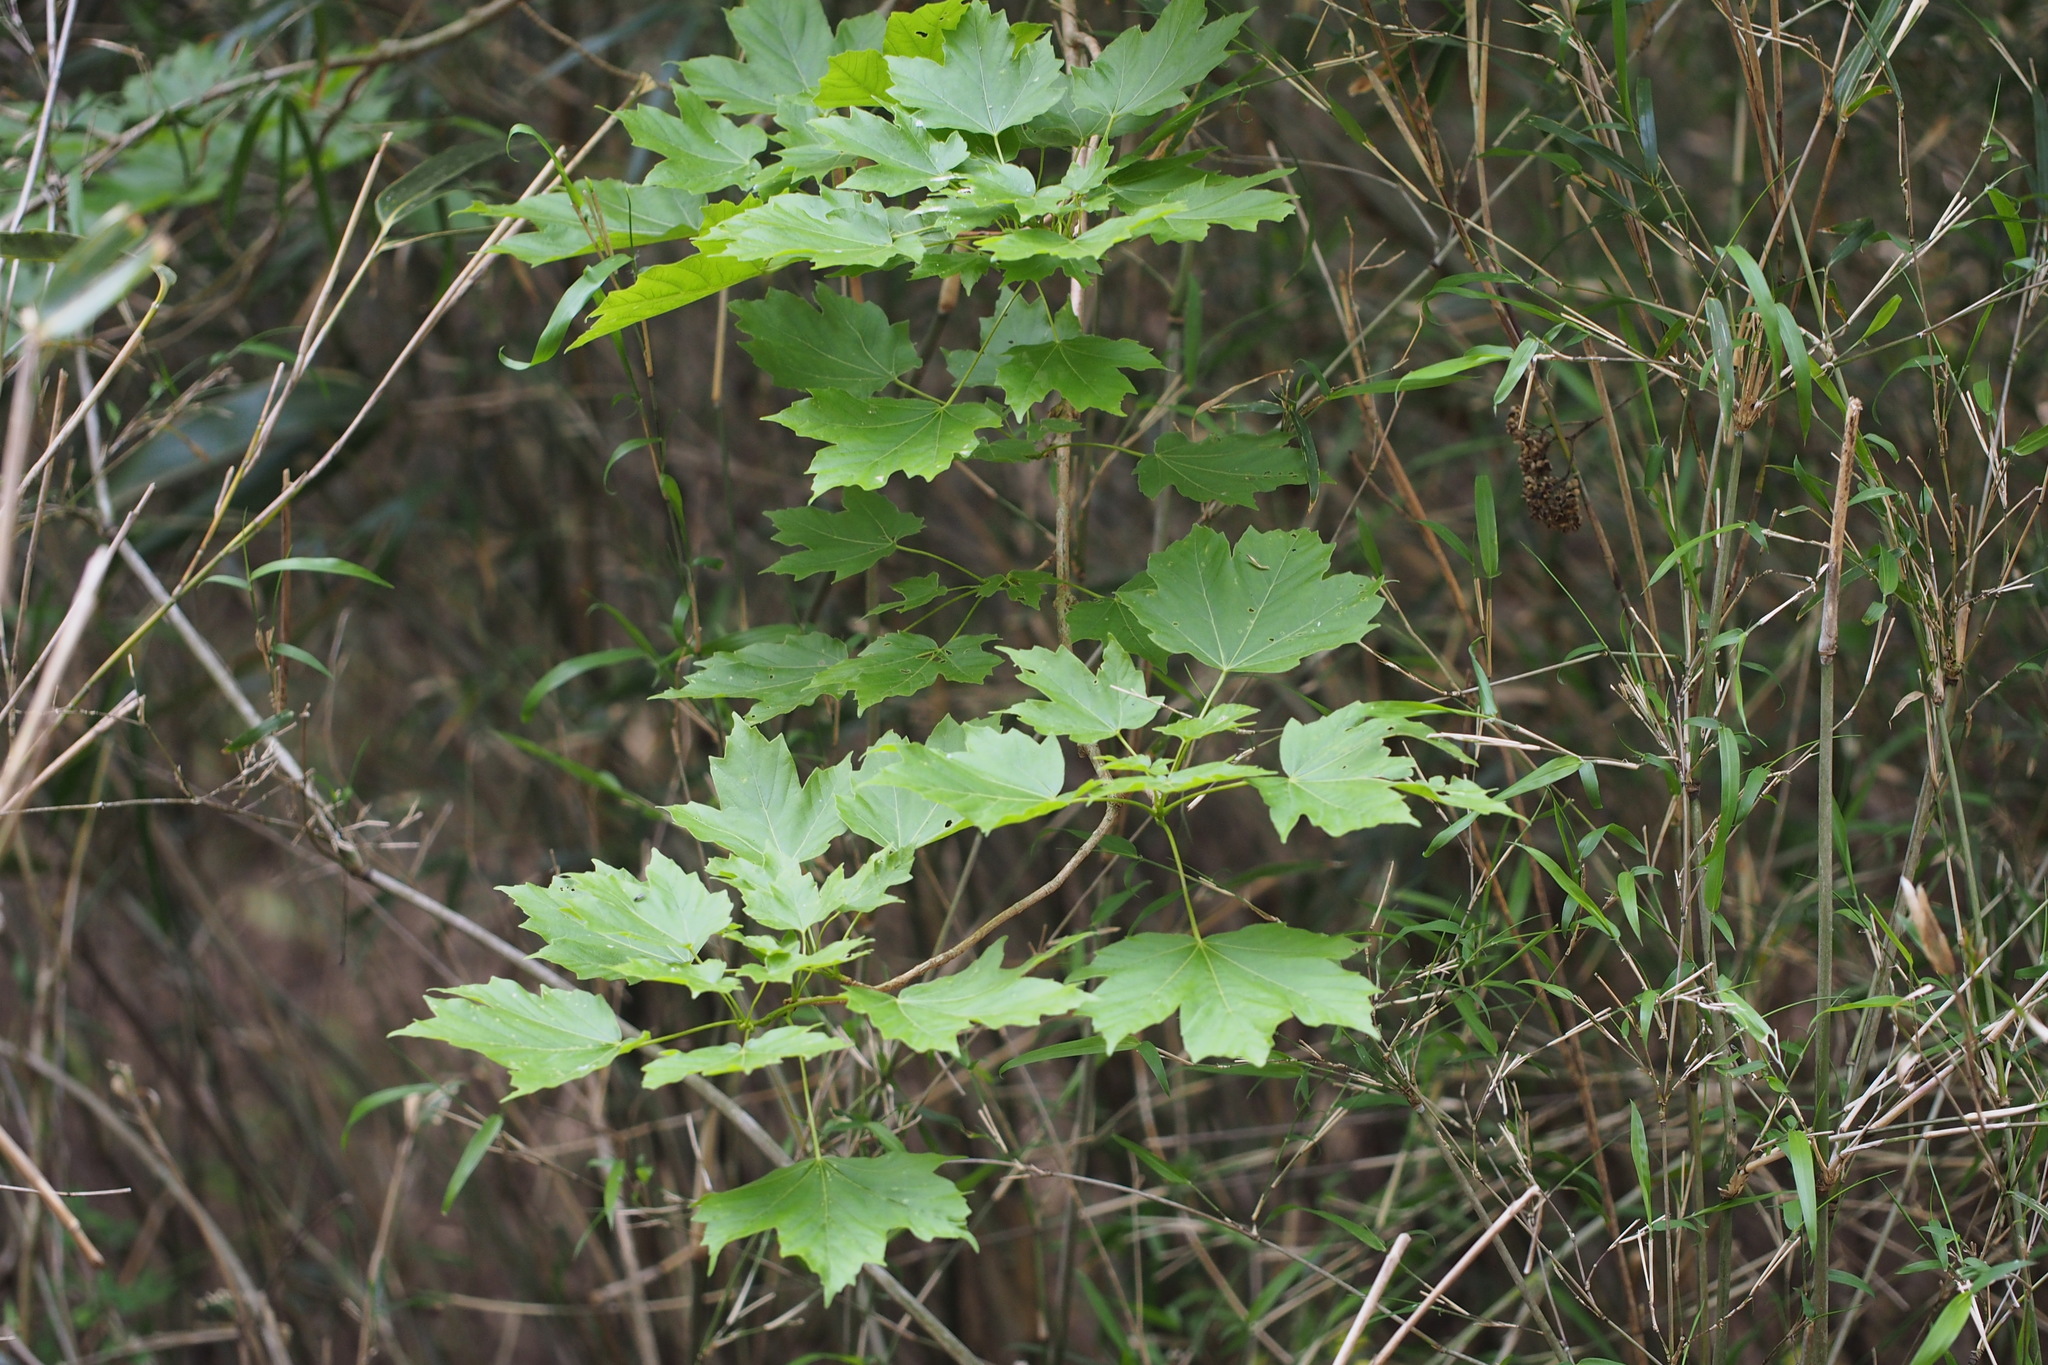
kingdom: Plantae
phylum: Tracheophyta
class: Magnoliopsida
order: Sapindales
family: Sapindaceae
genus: Acer
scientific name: Acer diabolicum
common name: Devil maple
